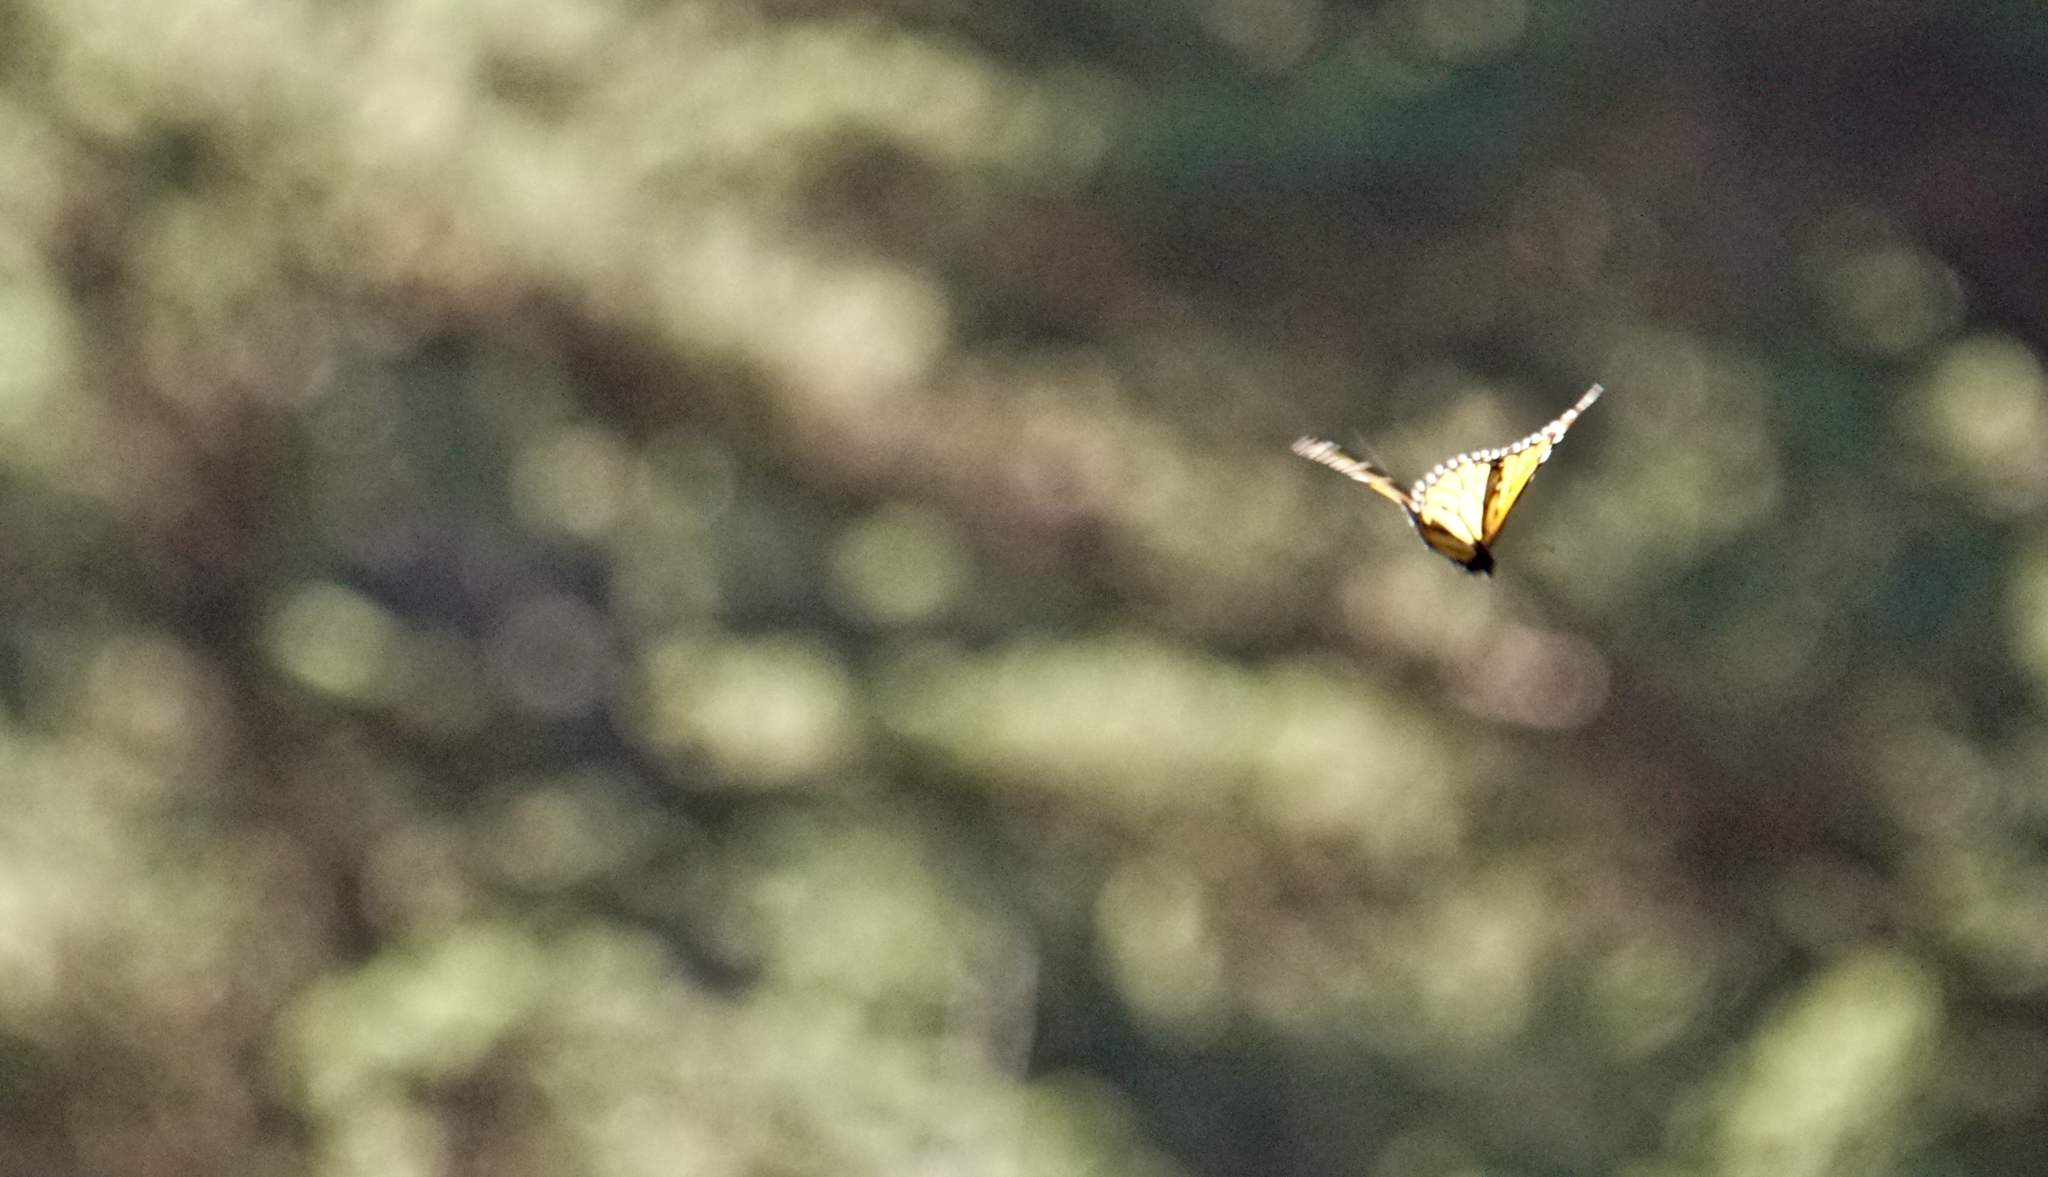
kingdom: Animalia
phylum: Arthropoda
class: Insecta
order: Lepidoptera
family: Nymphalidae
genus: Danaus
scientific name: Danaus plexippus
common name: Monarch
